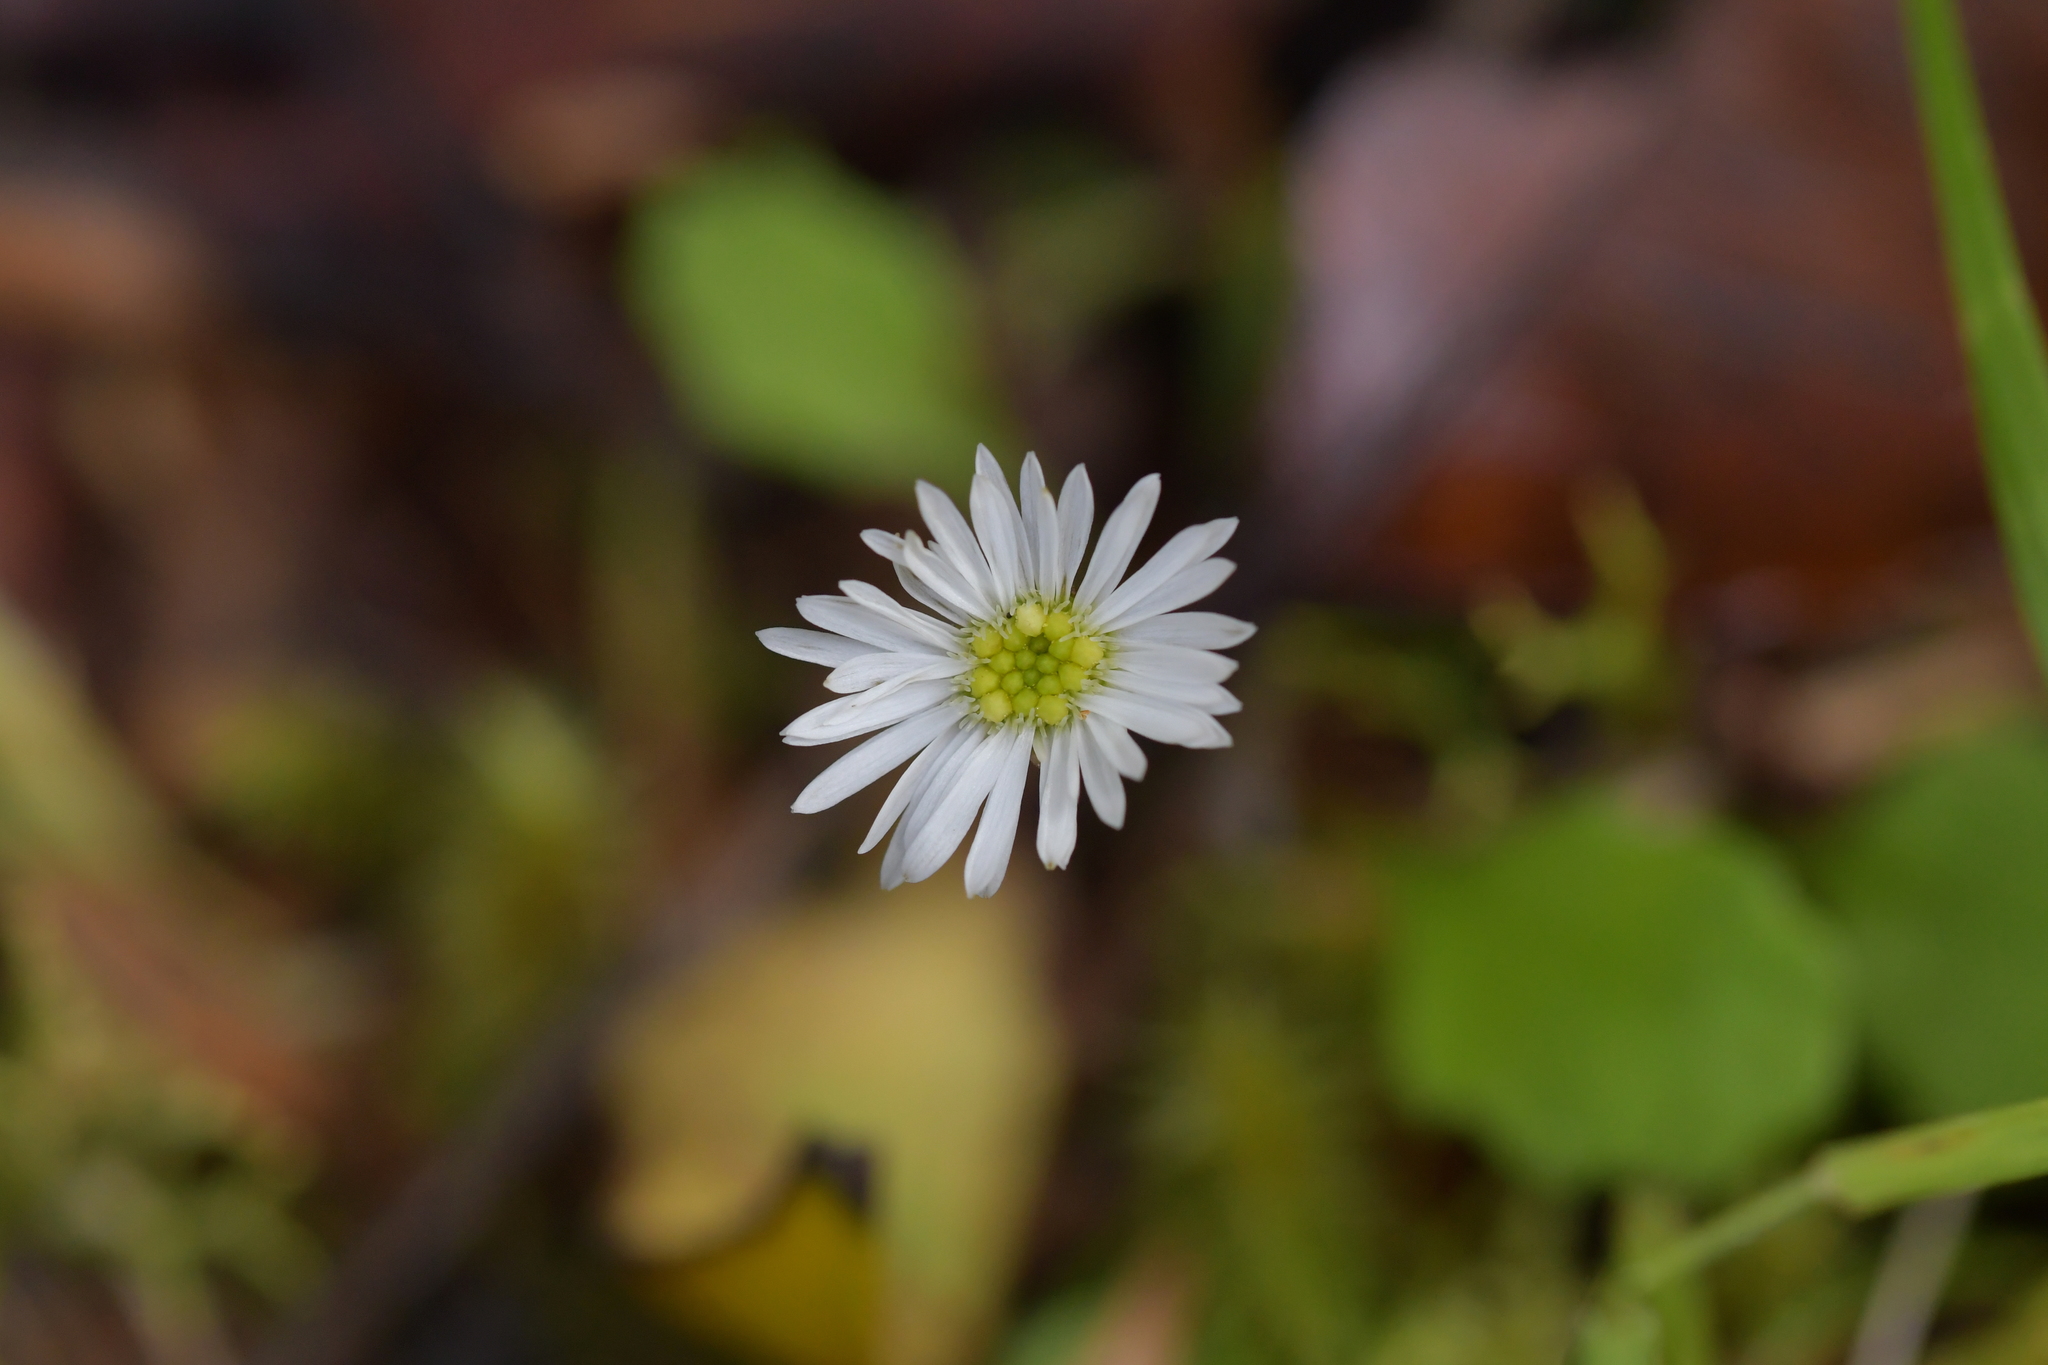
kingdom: Plantae
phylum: Tracheophyta
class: Magnoliopsida
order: Asterales
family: Asteraceae
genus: Lagenophora
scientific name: Lagenophora pumila
